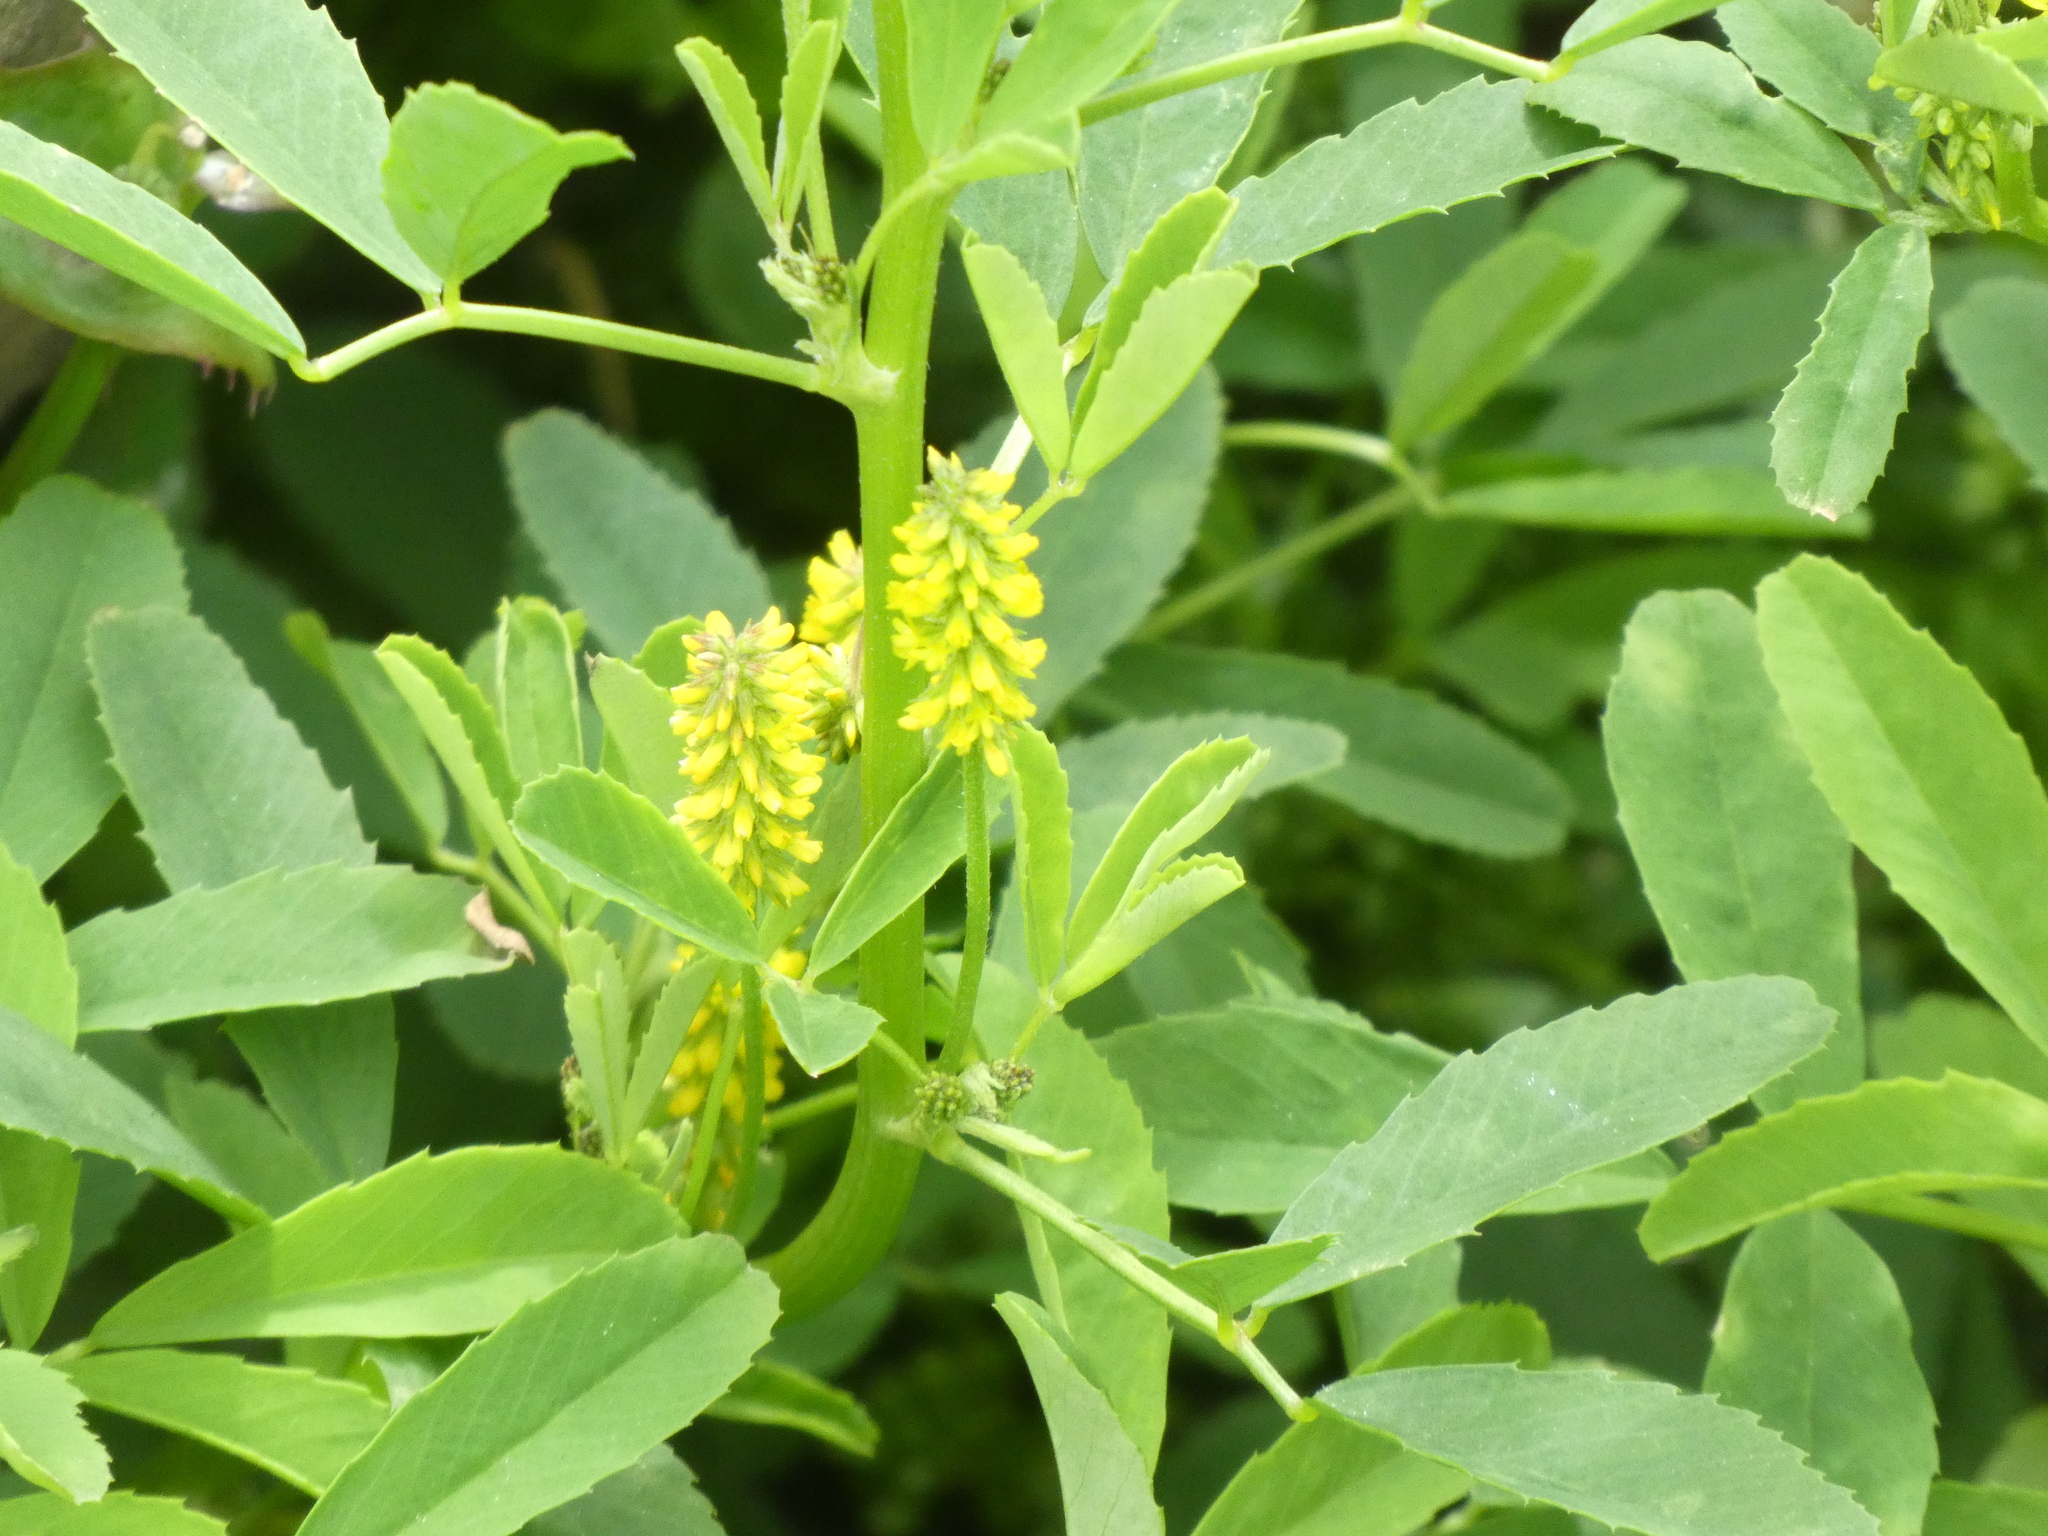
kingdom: Plantae
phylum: Tracheophyta
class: Magnoliopsida
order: Fabales
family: Fabaceae
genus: Melilotus
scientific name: Melilotus indicus
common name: Small melilot
